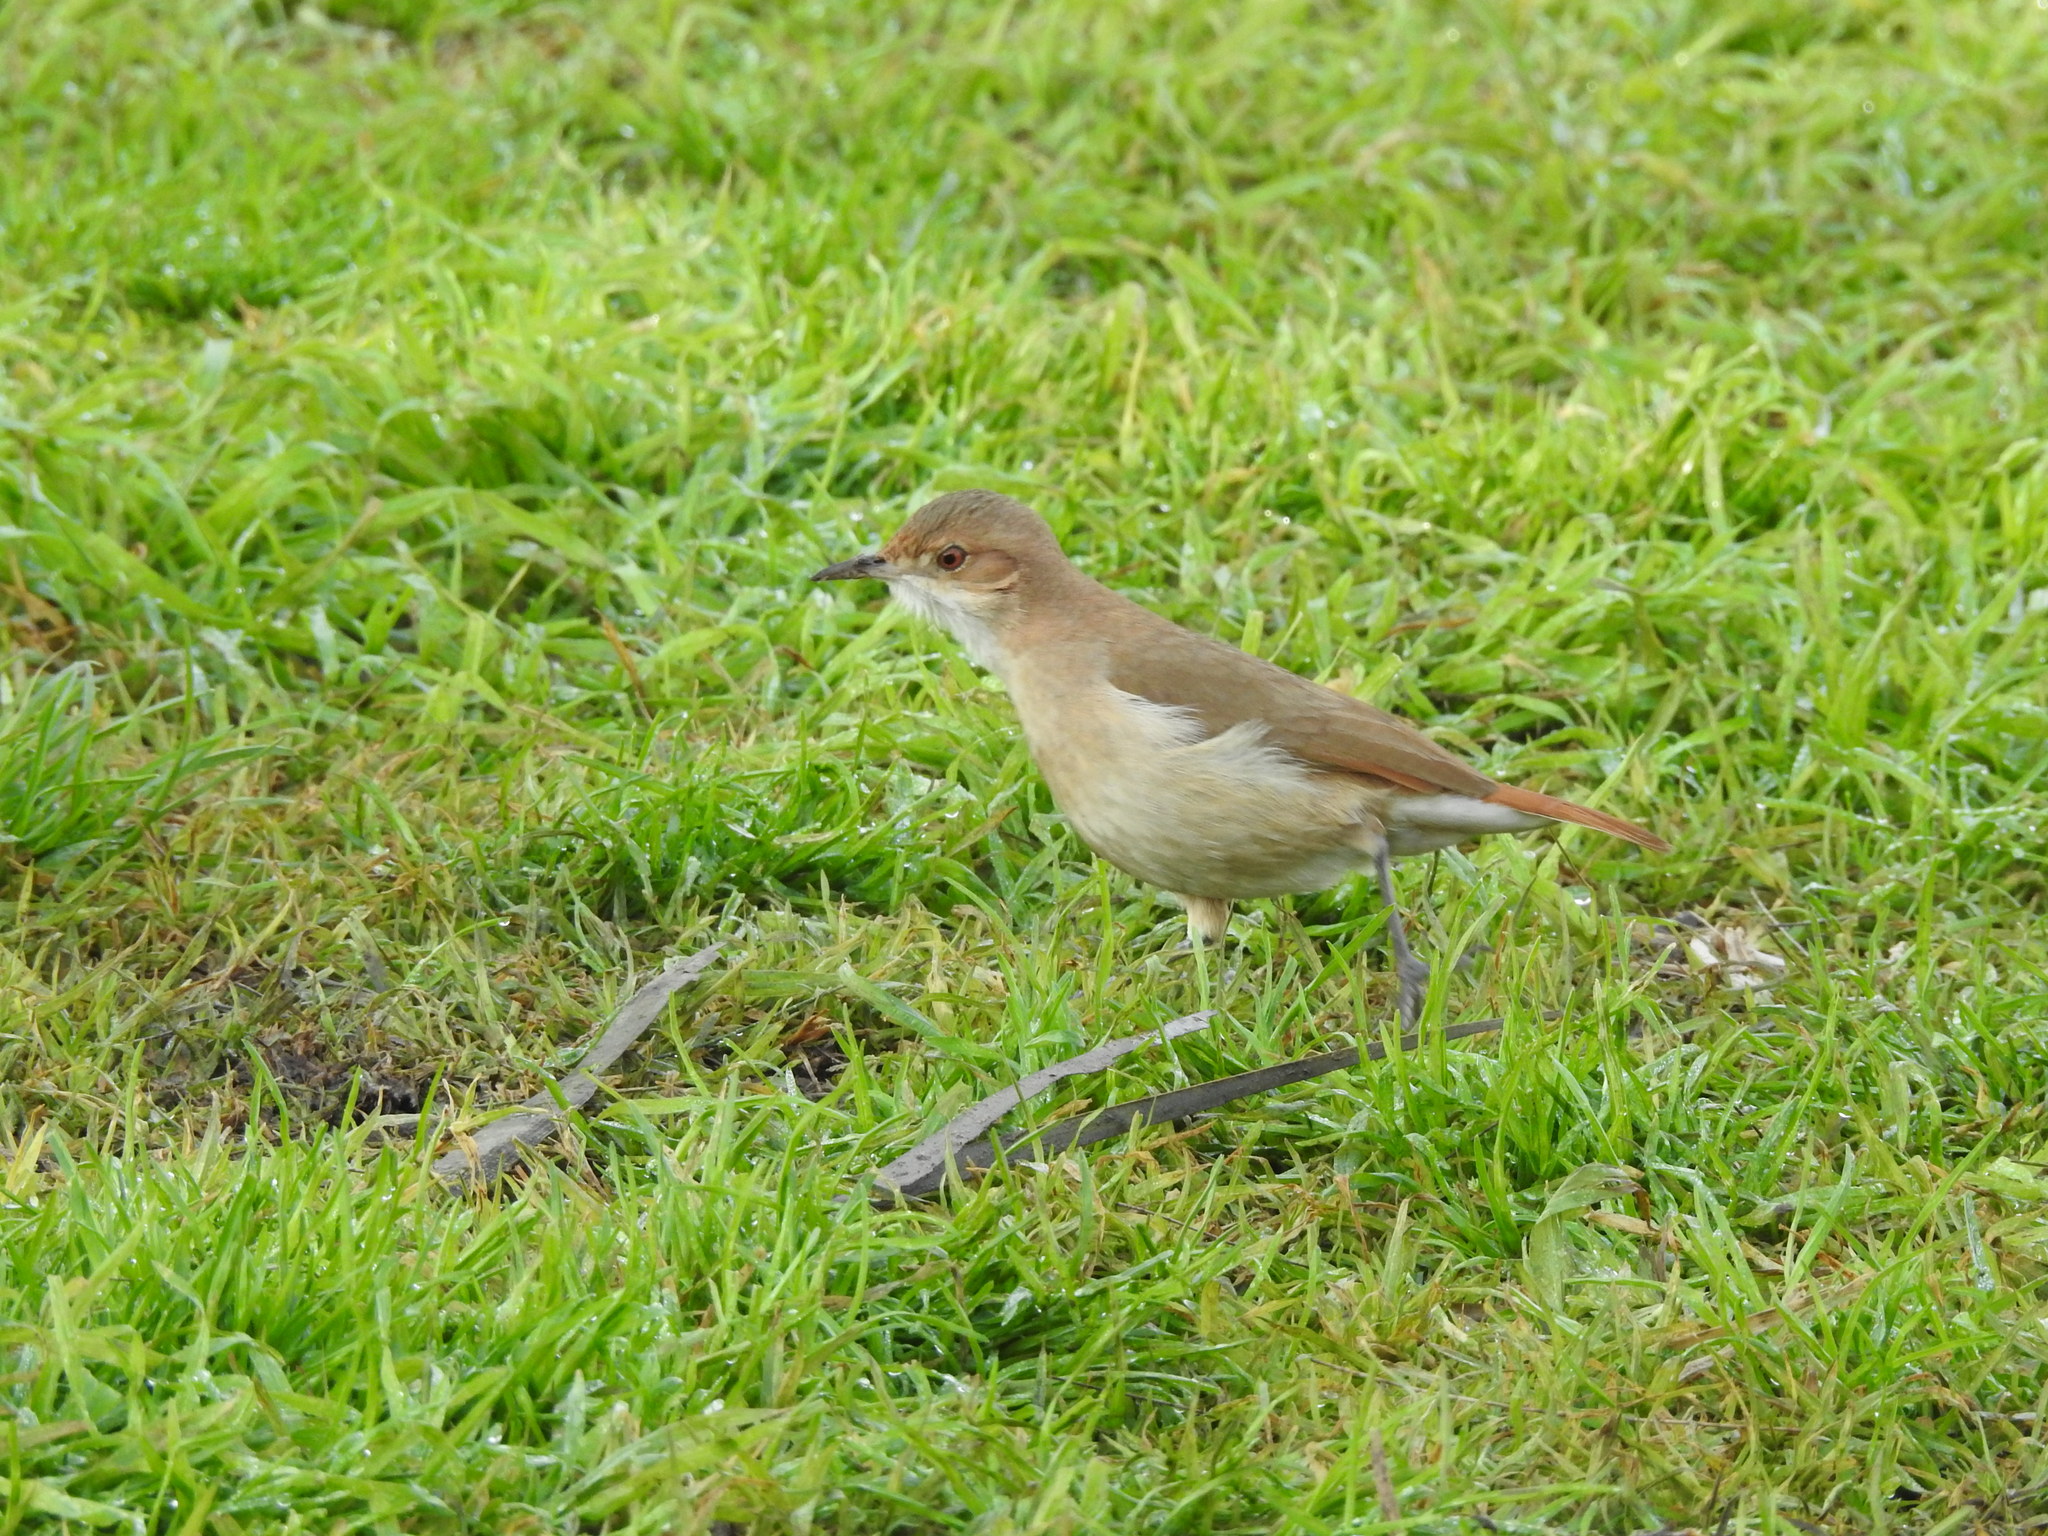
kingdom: Animalia
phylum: Chordata
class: Aves
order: Passeriformes
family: Furnariidae
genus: Furnarius
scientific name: Furnarius rufus
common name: Rufous hornero
